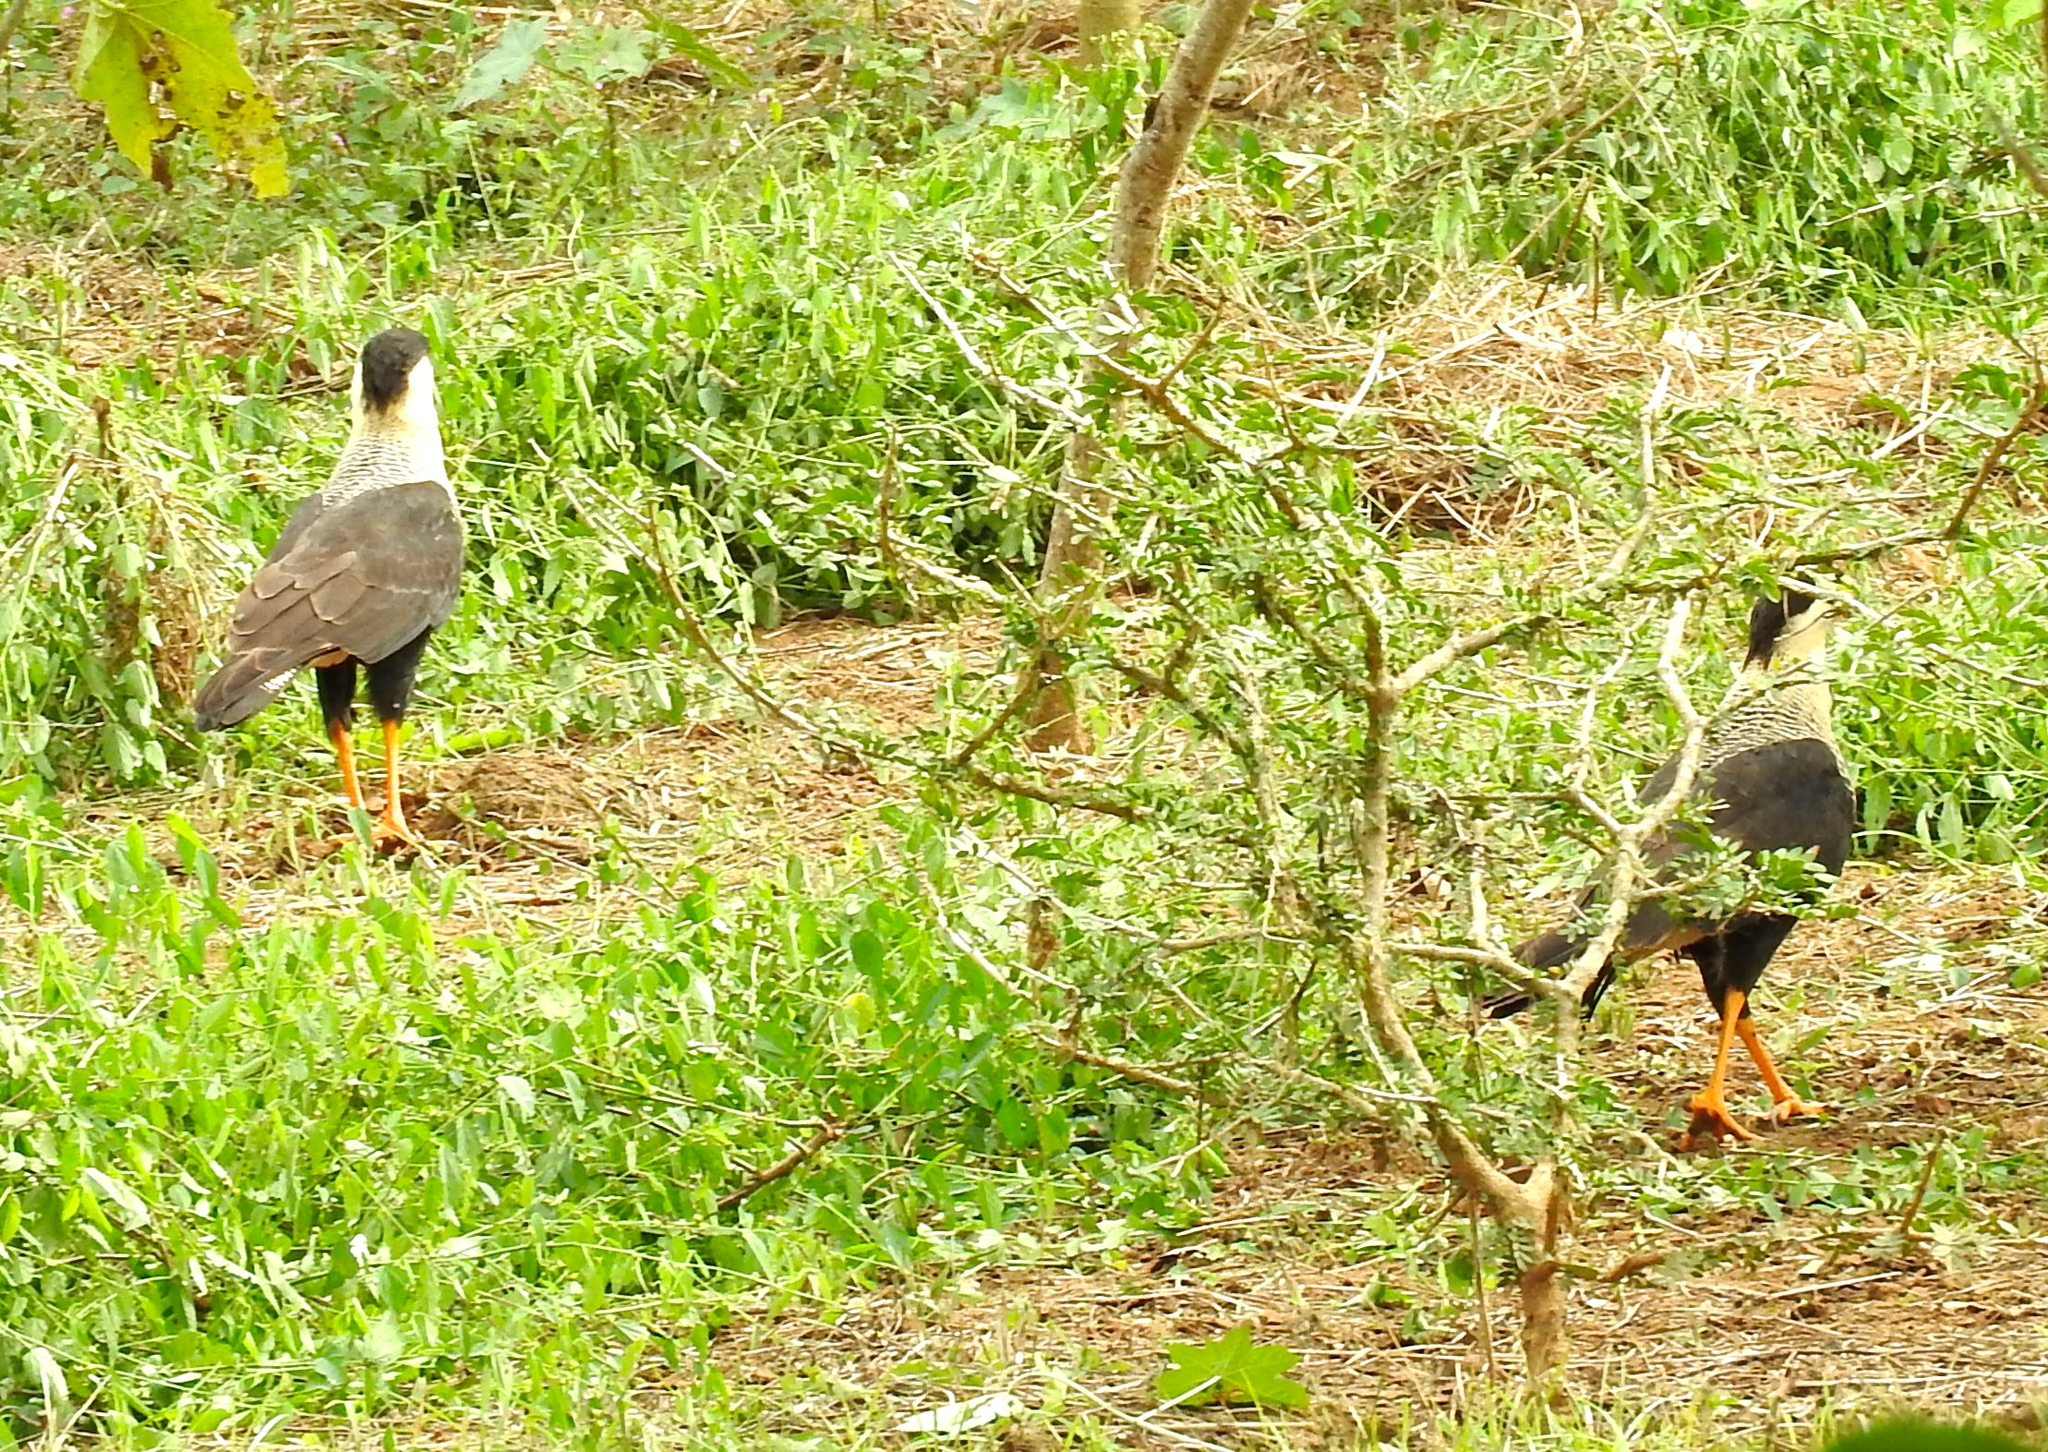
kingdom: Animalia
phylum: Chordata
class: Aves
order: Falconiformes
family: Falconidae
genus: Caracara
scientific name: Caracara plancus
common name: Southern caracara
